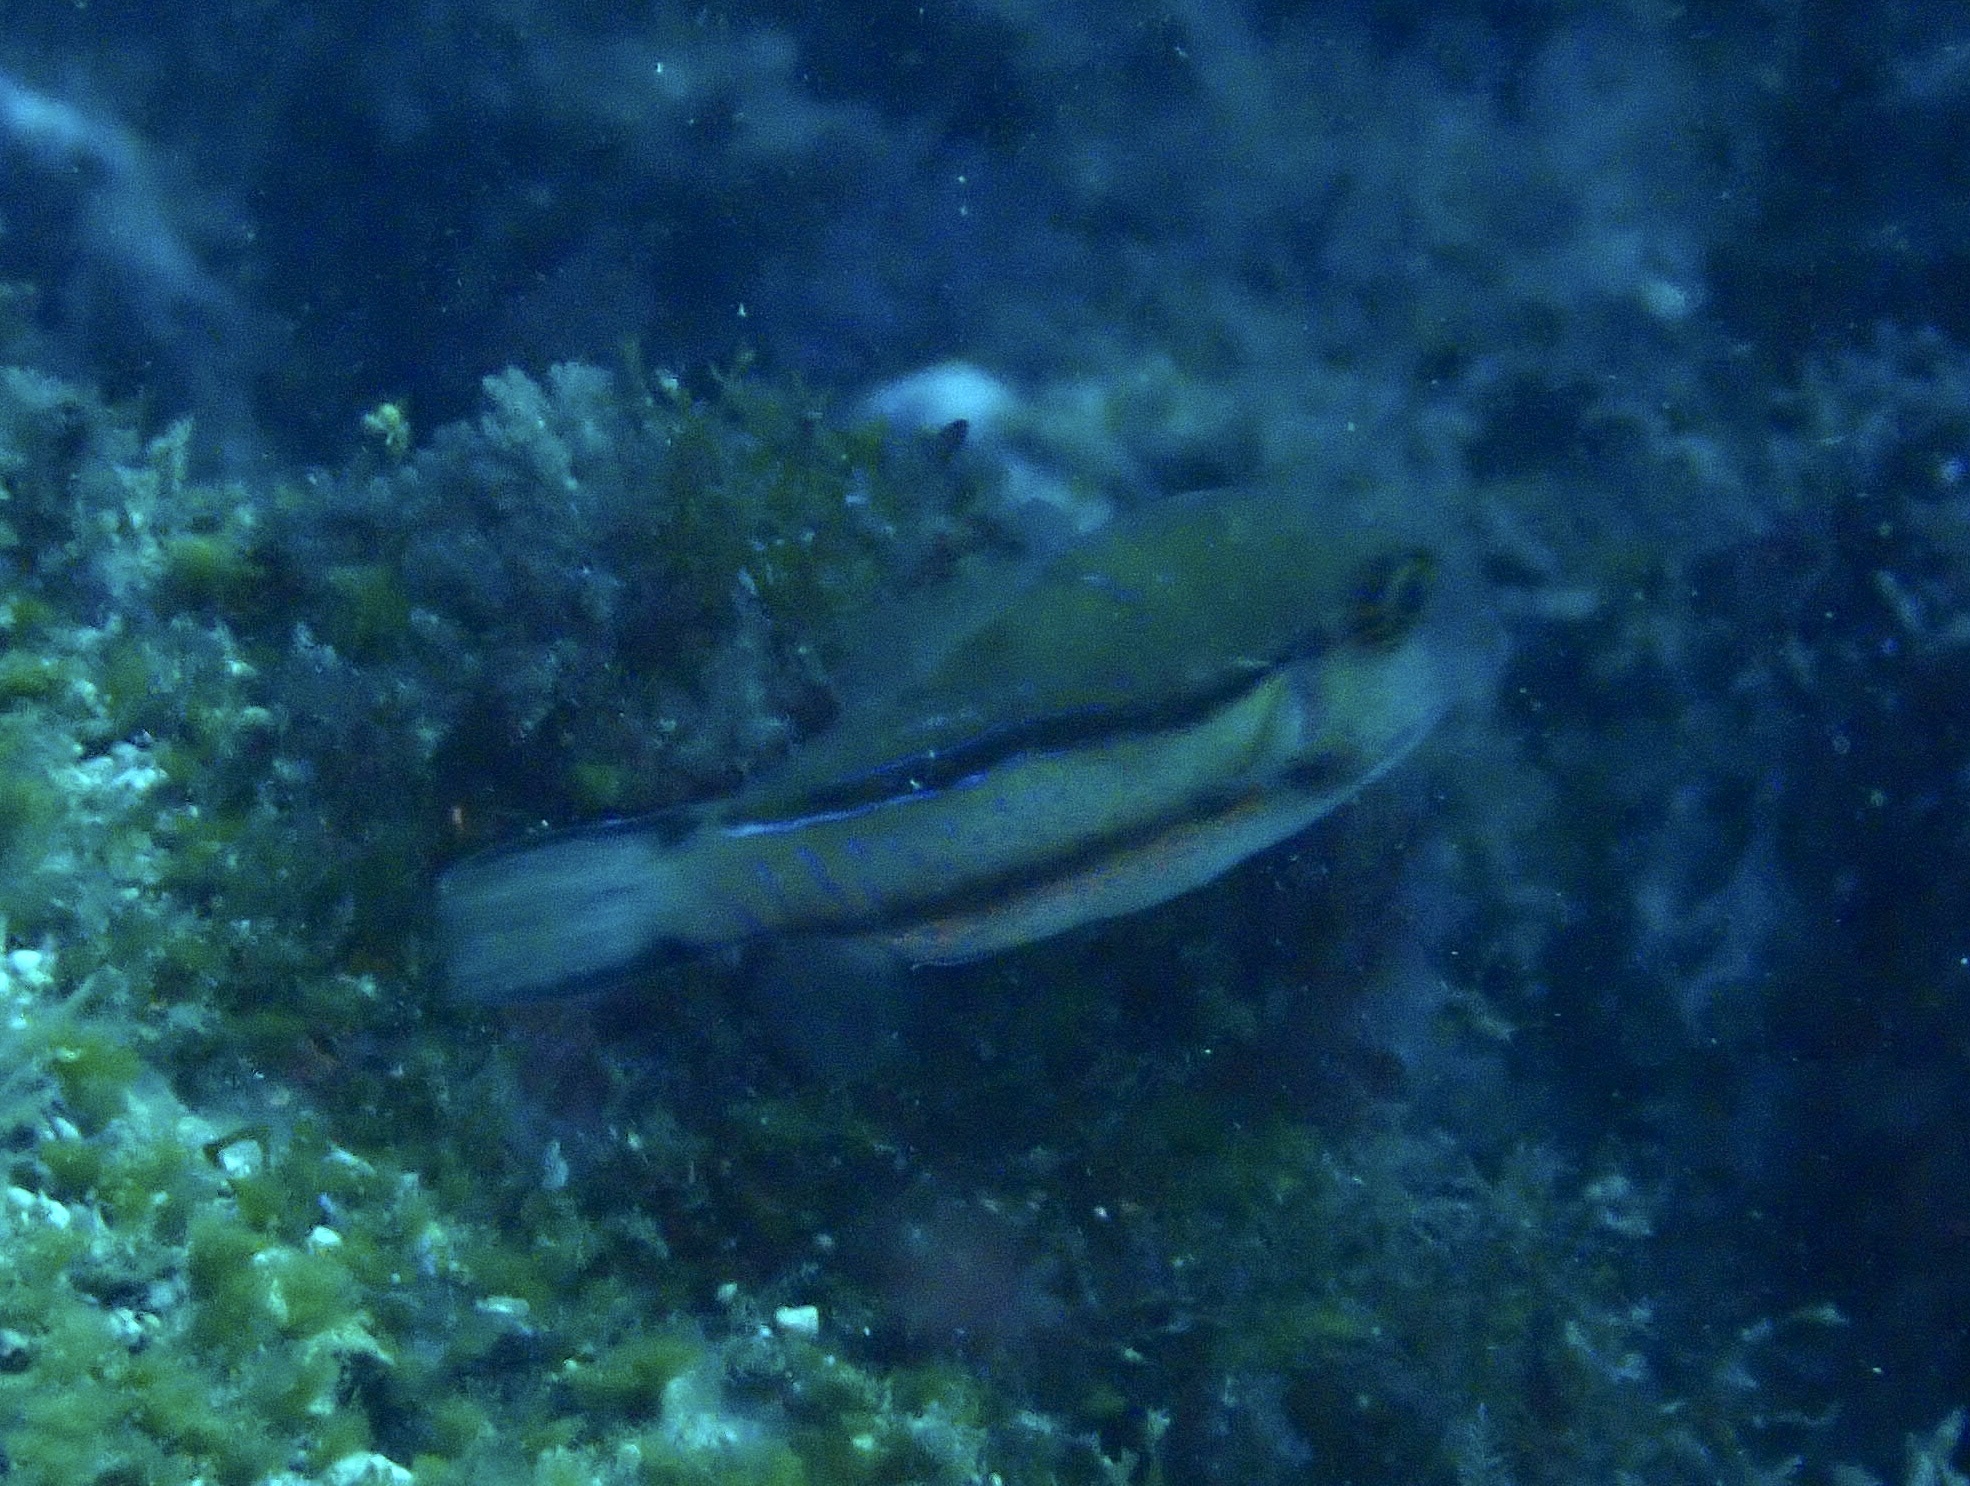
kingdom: Animalia
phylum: Chordata
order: Tetraodontiformes
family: Tetraodontidae
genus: Canthigaster
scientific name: Canthigaster capistrata
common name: Macaronesian sharpnose-puffer
